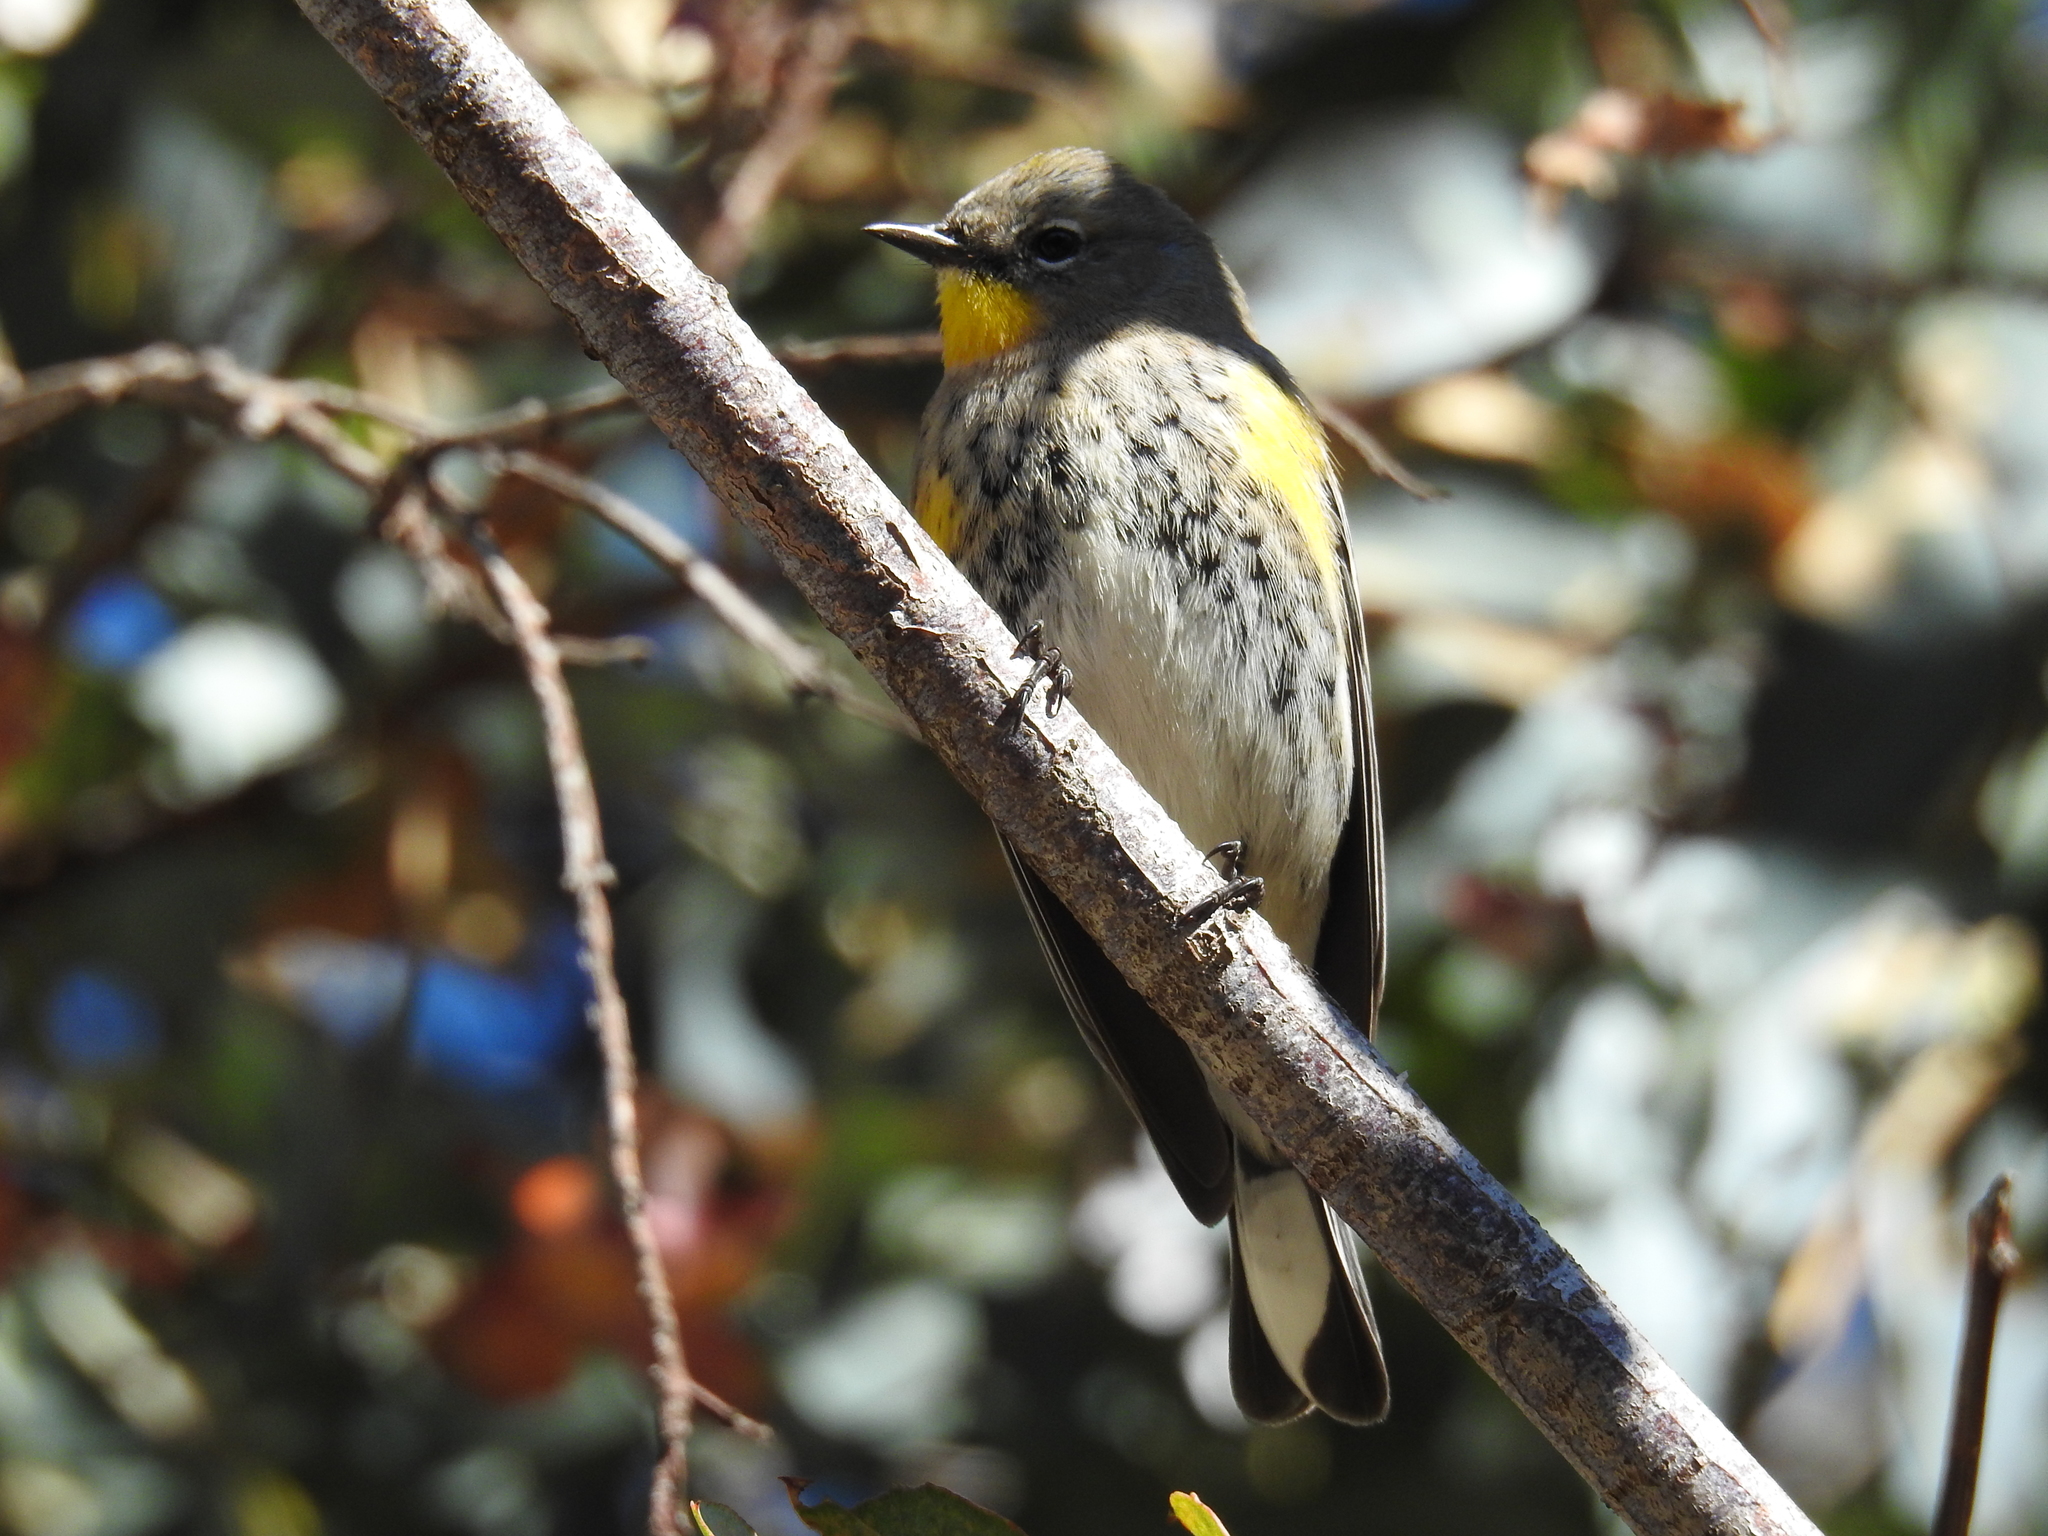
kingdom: Animalia
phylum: Chordata
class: Aves
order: Passeriformes
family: Parulidae
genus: Setophaga
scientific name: Setophaga coronata
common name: Myrtle warbler
